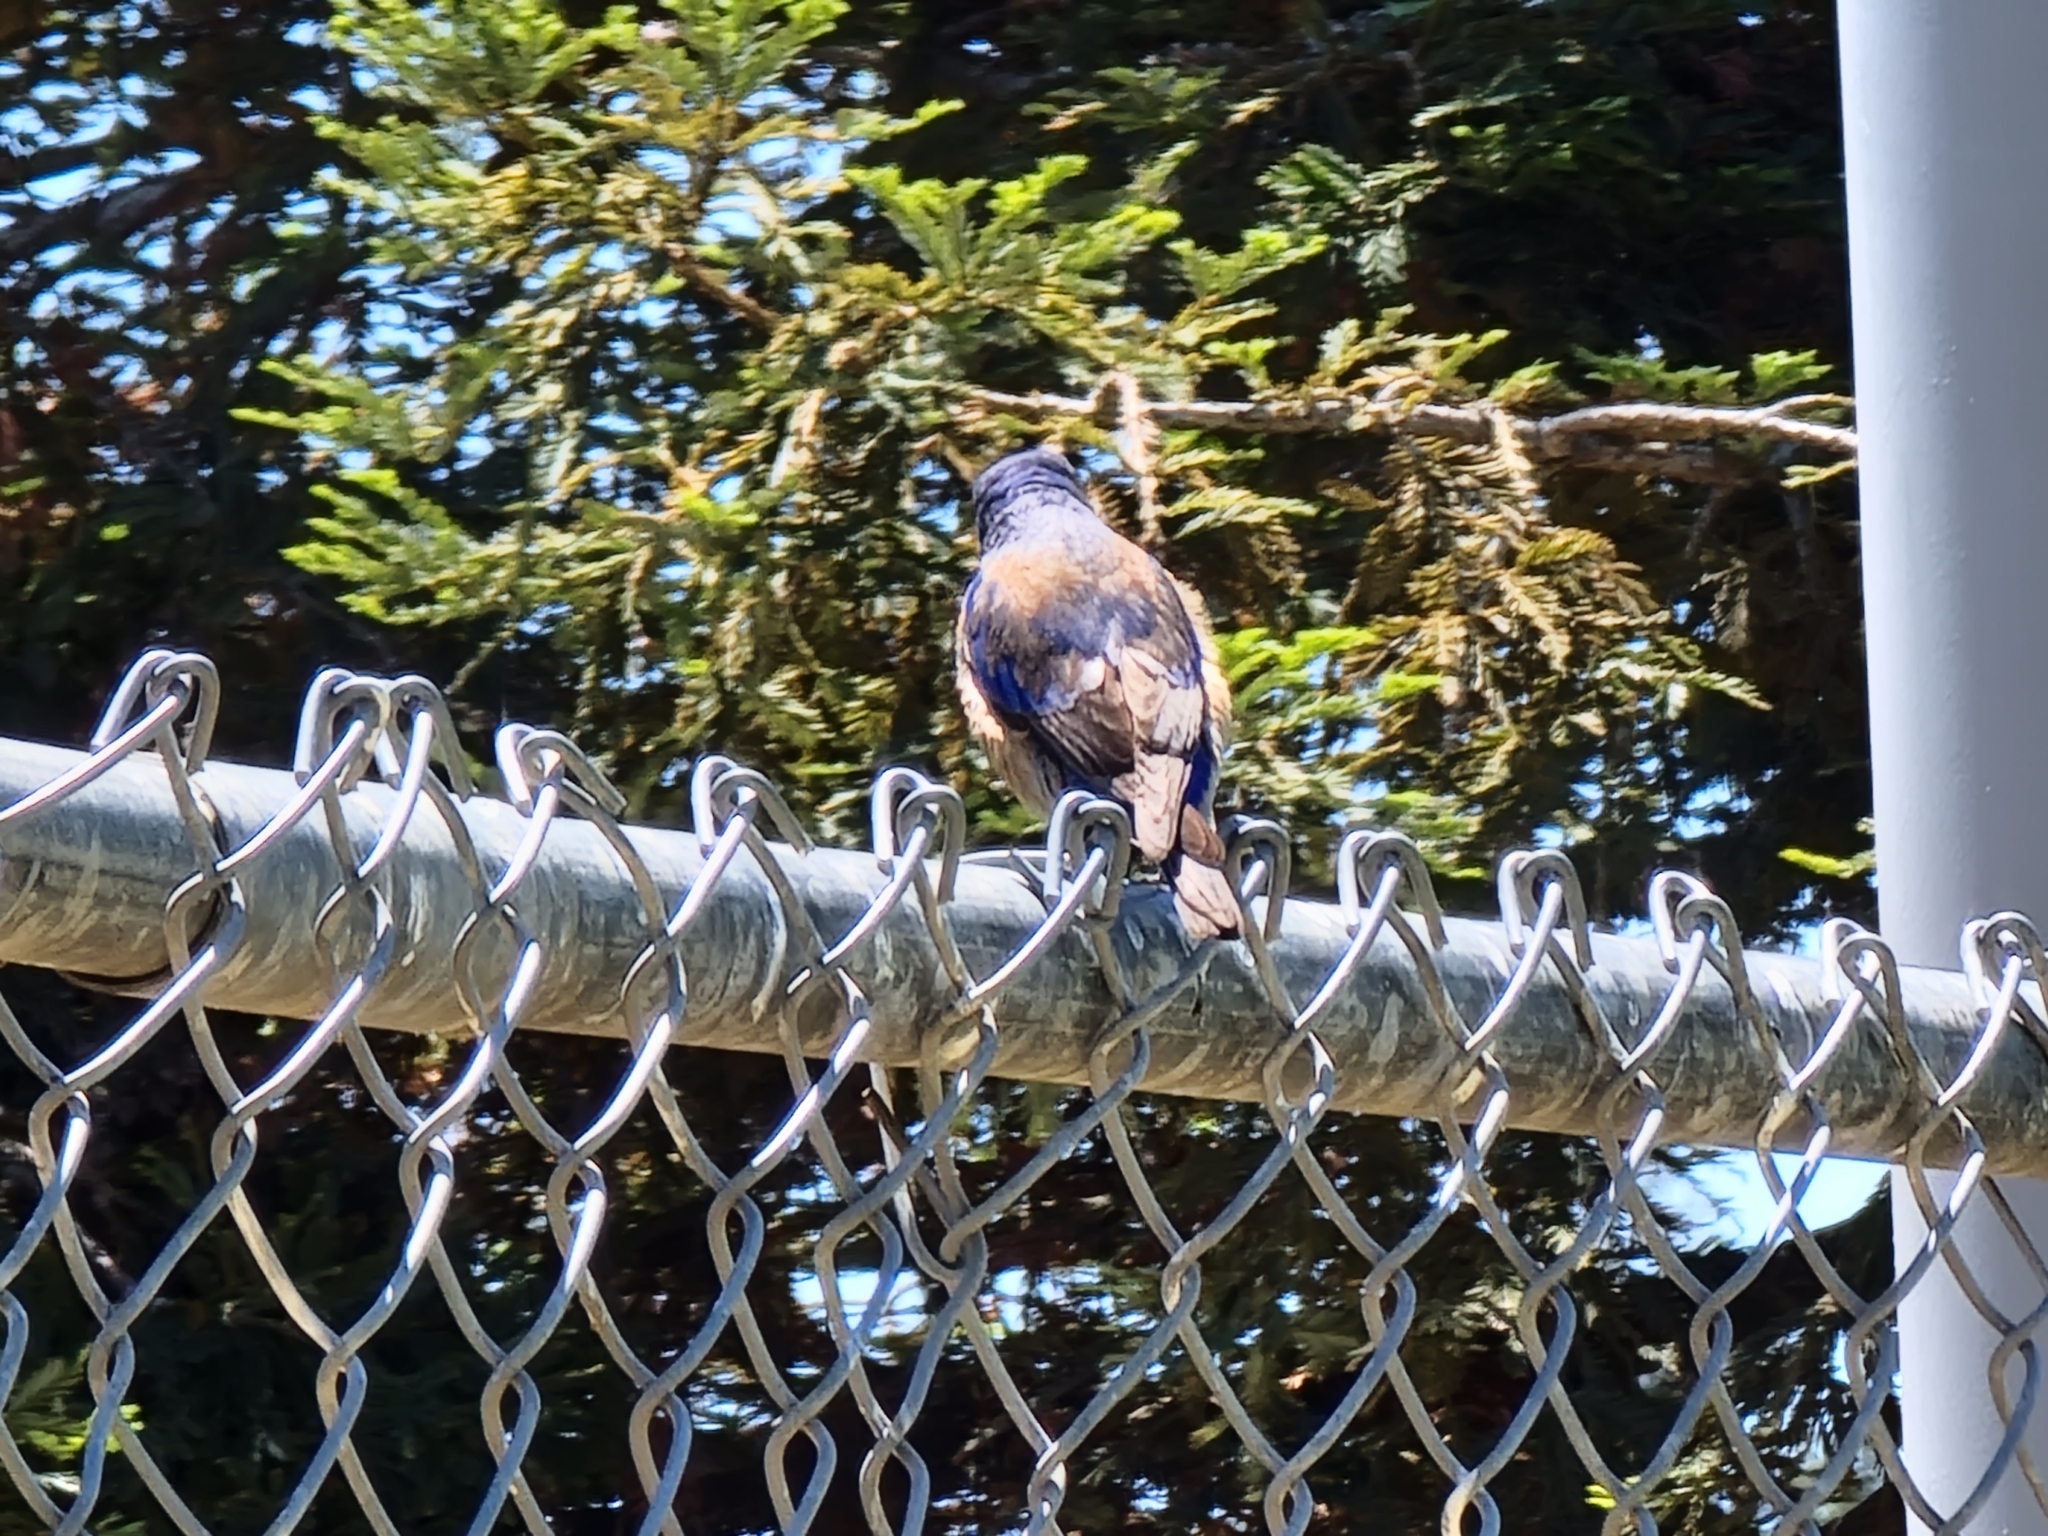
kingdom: Animalia
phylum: Chordata
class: Aves
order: Passeriformes
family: Turdidae
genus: Sialia
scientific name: Sialia mexicana
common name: Western bluebird
